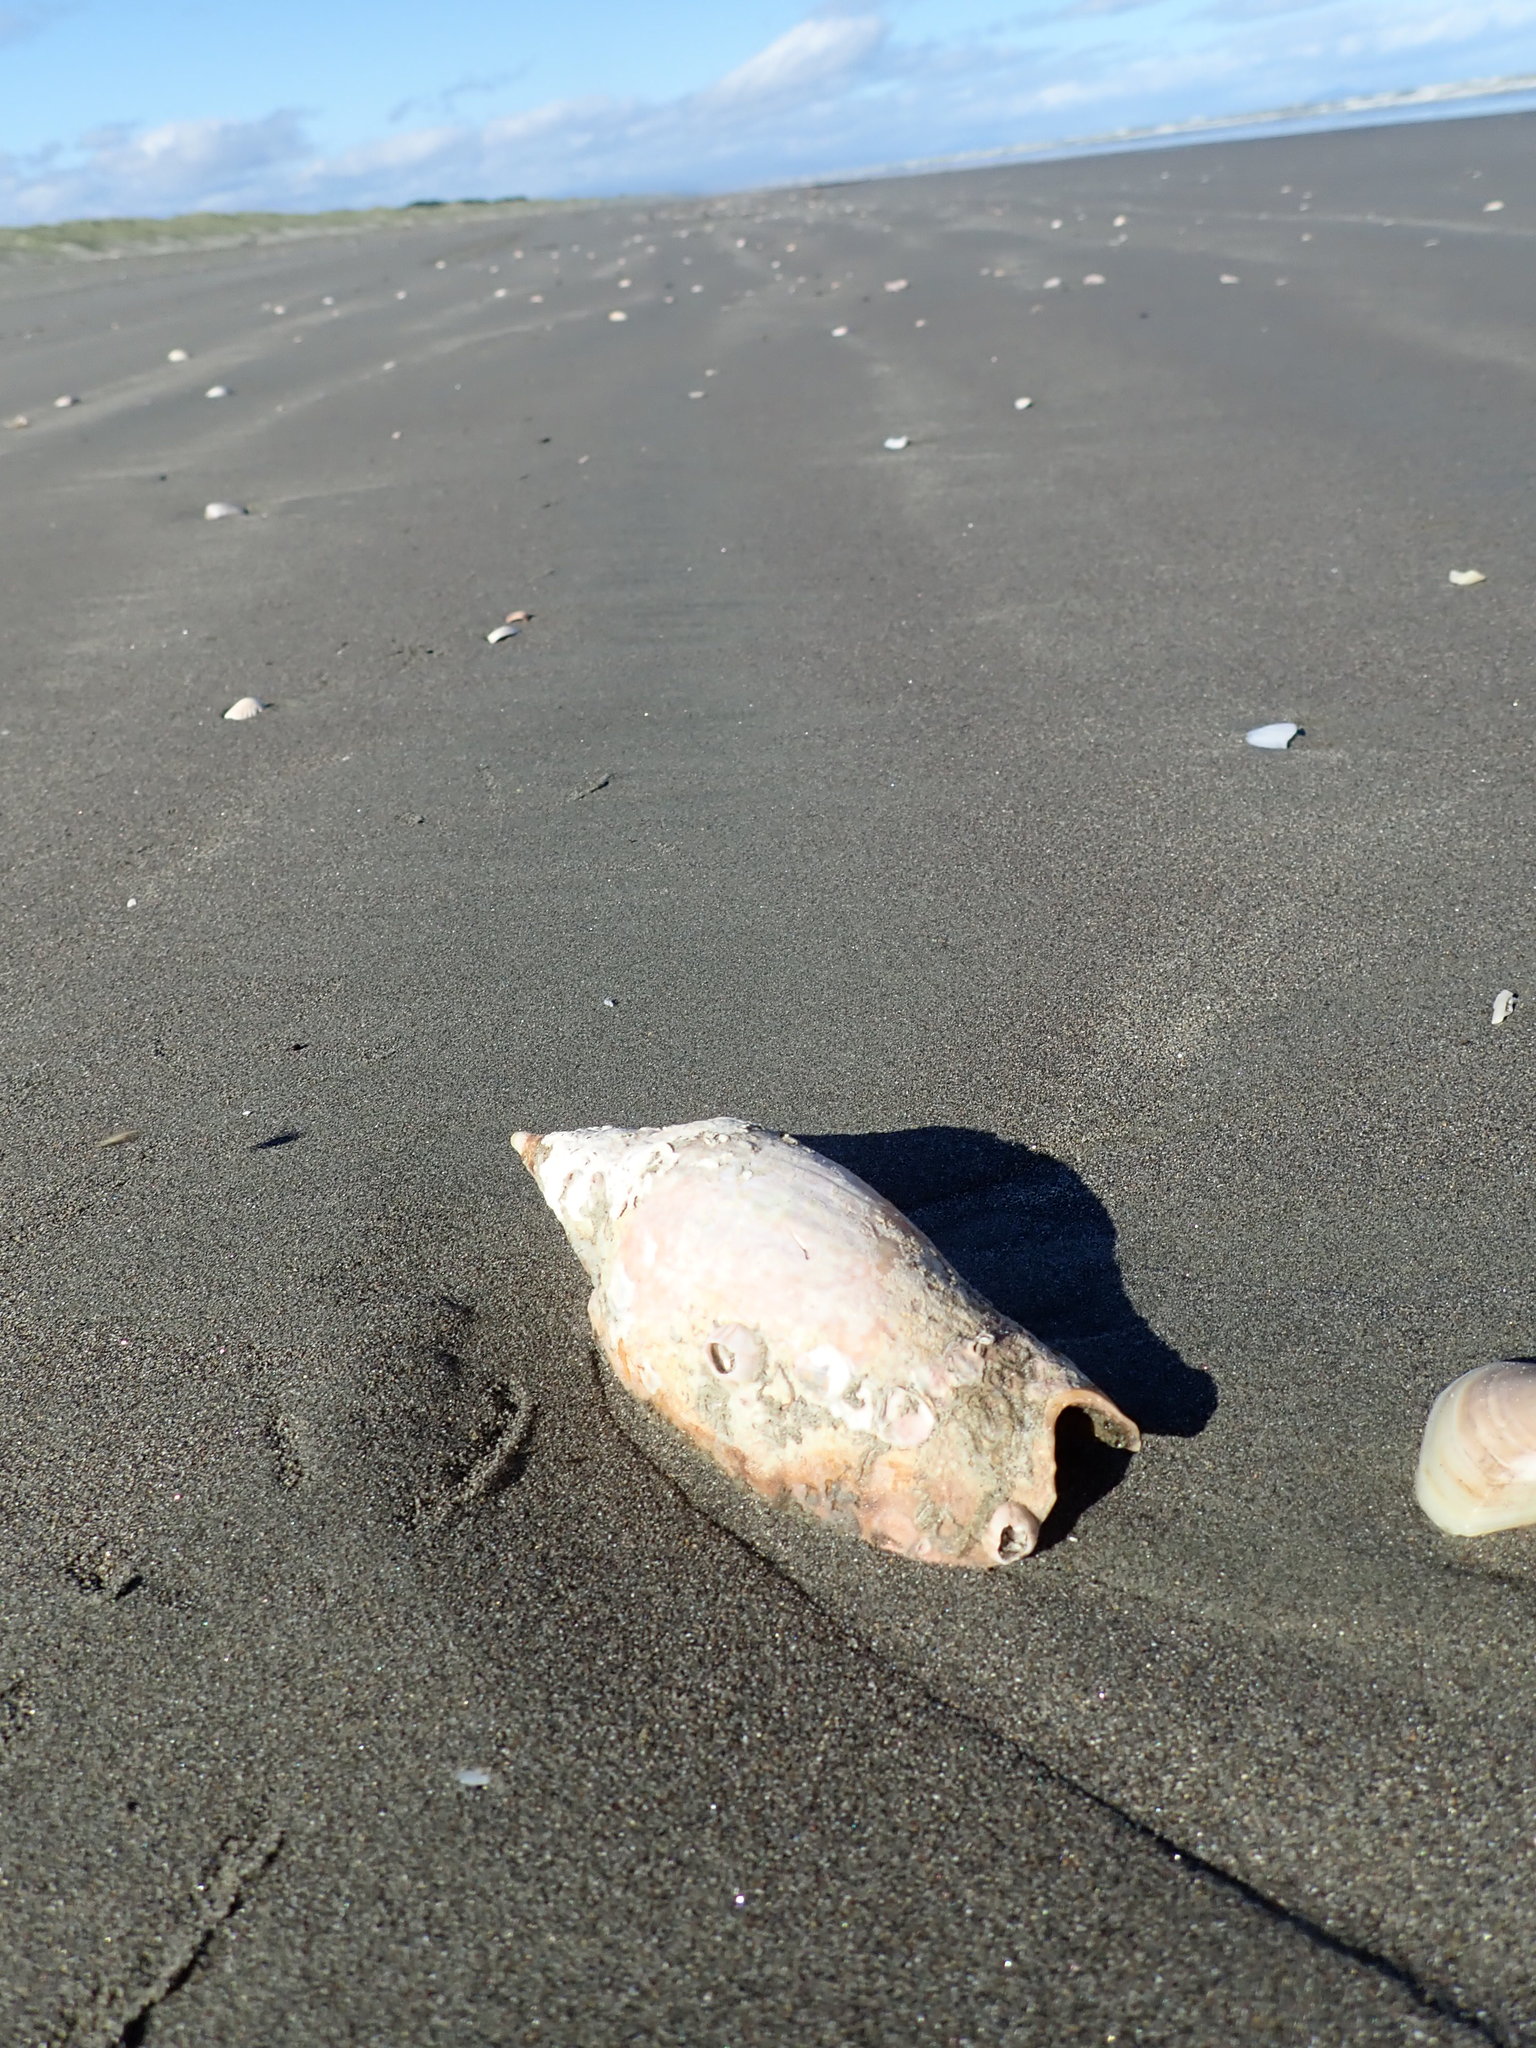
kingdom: Animalia
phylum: Mollusca
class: Gastropoda
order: Neogastropoda
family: Volutidae
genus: Alcithoe
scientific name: Alcithoe arabica
